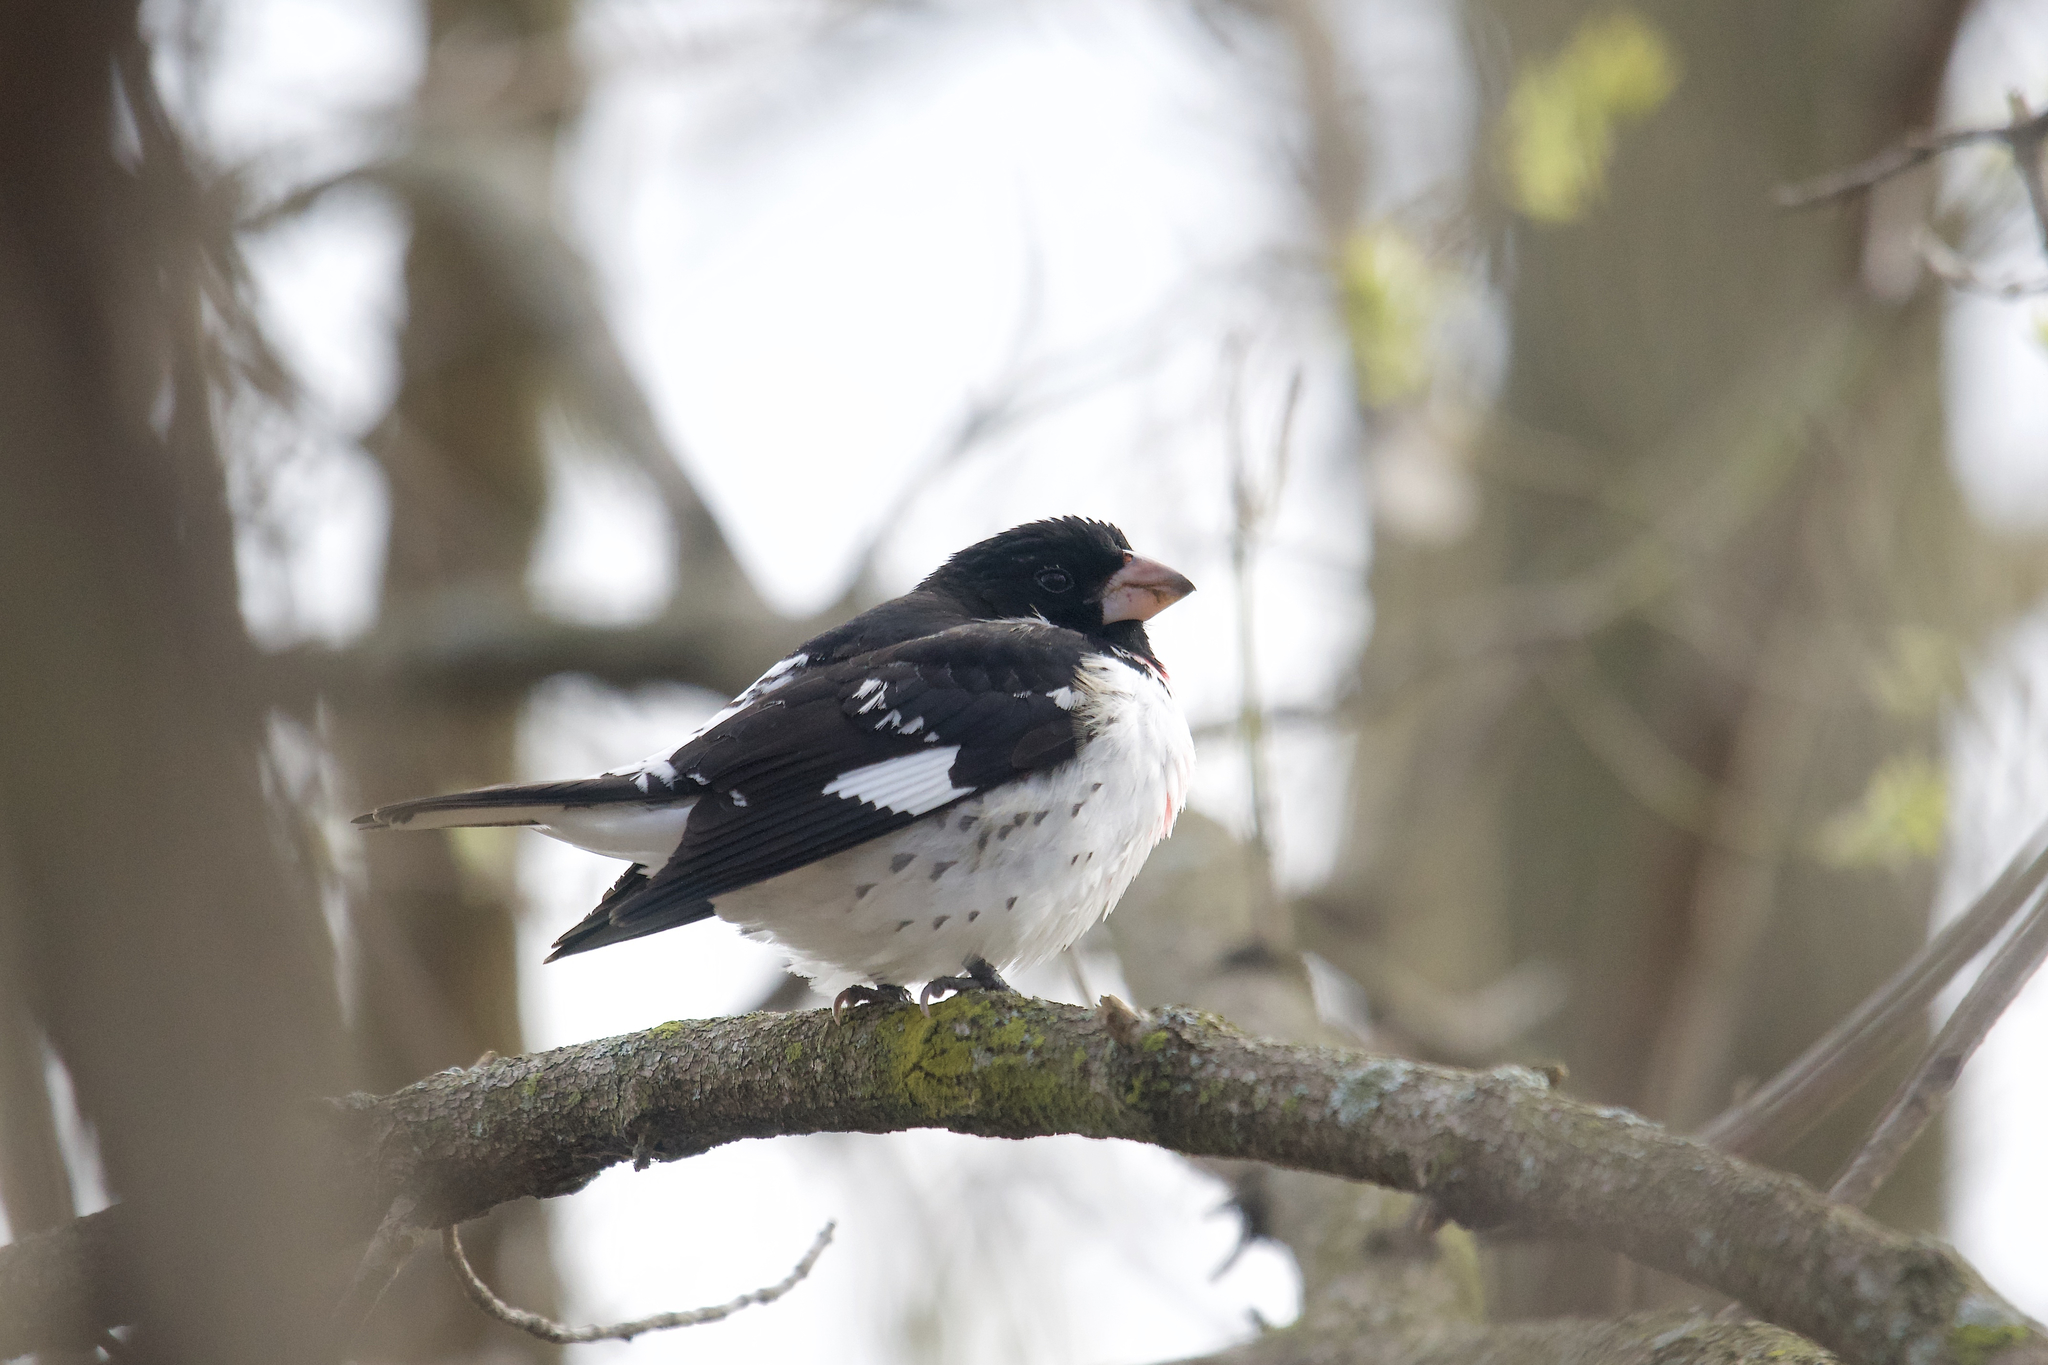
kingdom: Animalia
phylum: Chordata
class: Aves
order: Passeriformes
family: Cardinalidae
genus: Pheucticus
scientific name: Pheucticus ludovicianus
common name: Rose-breasted grosbeak
